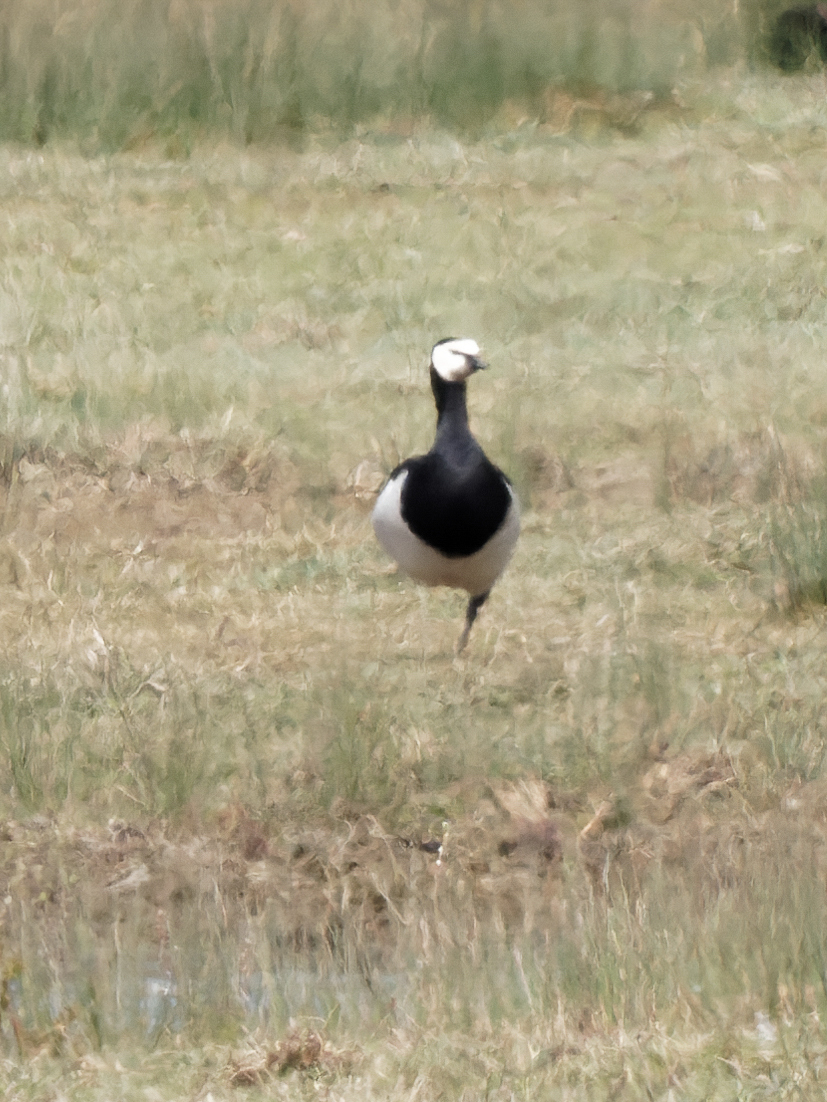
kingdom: Animalia
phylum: Chordata
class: Aves
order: Anseriformes
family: Anatidae
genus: Branta
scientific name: Branta leucopsis
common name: Barnacle goose
